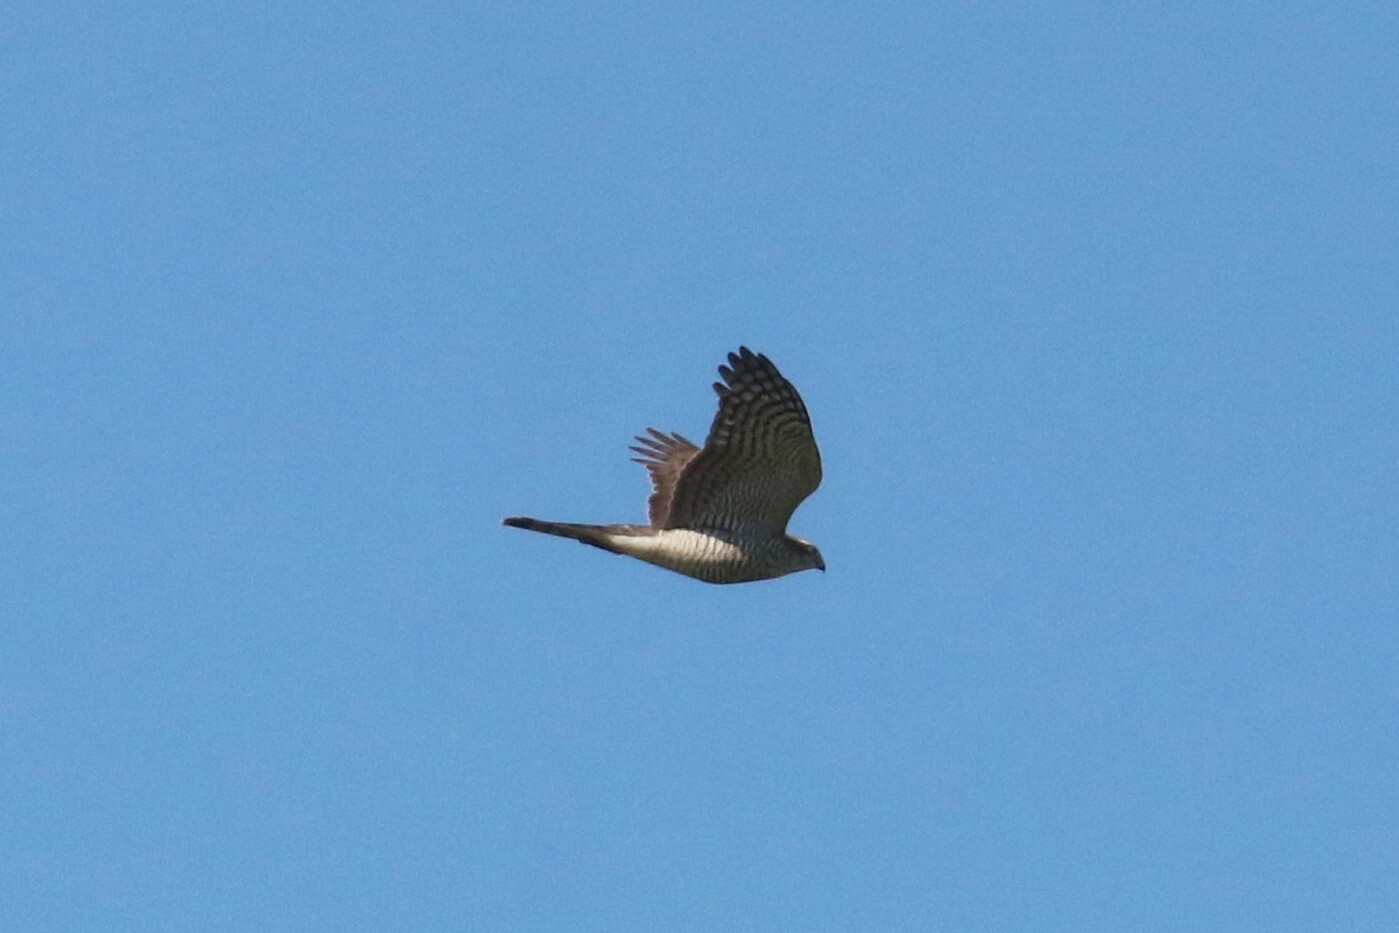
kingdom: Animalia
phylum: Chordata
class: Aves
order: Accipitriformes
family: Accipitridae
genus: Accipiter
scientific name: Accipiter nisus
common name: Eurasian sparrowhawk
